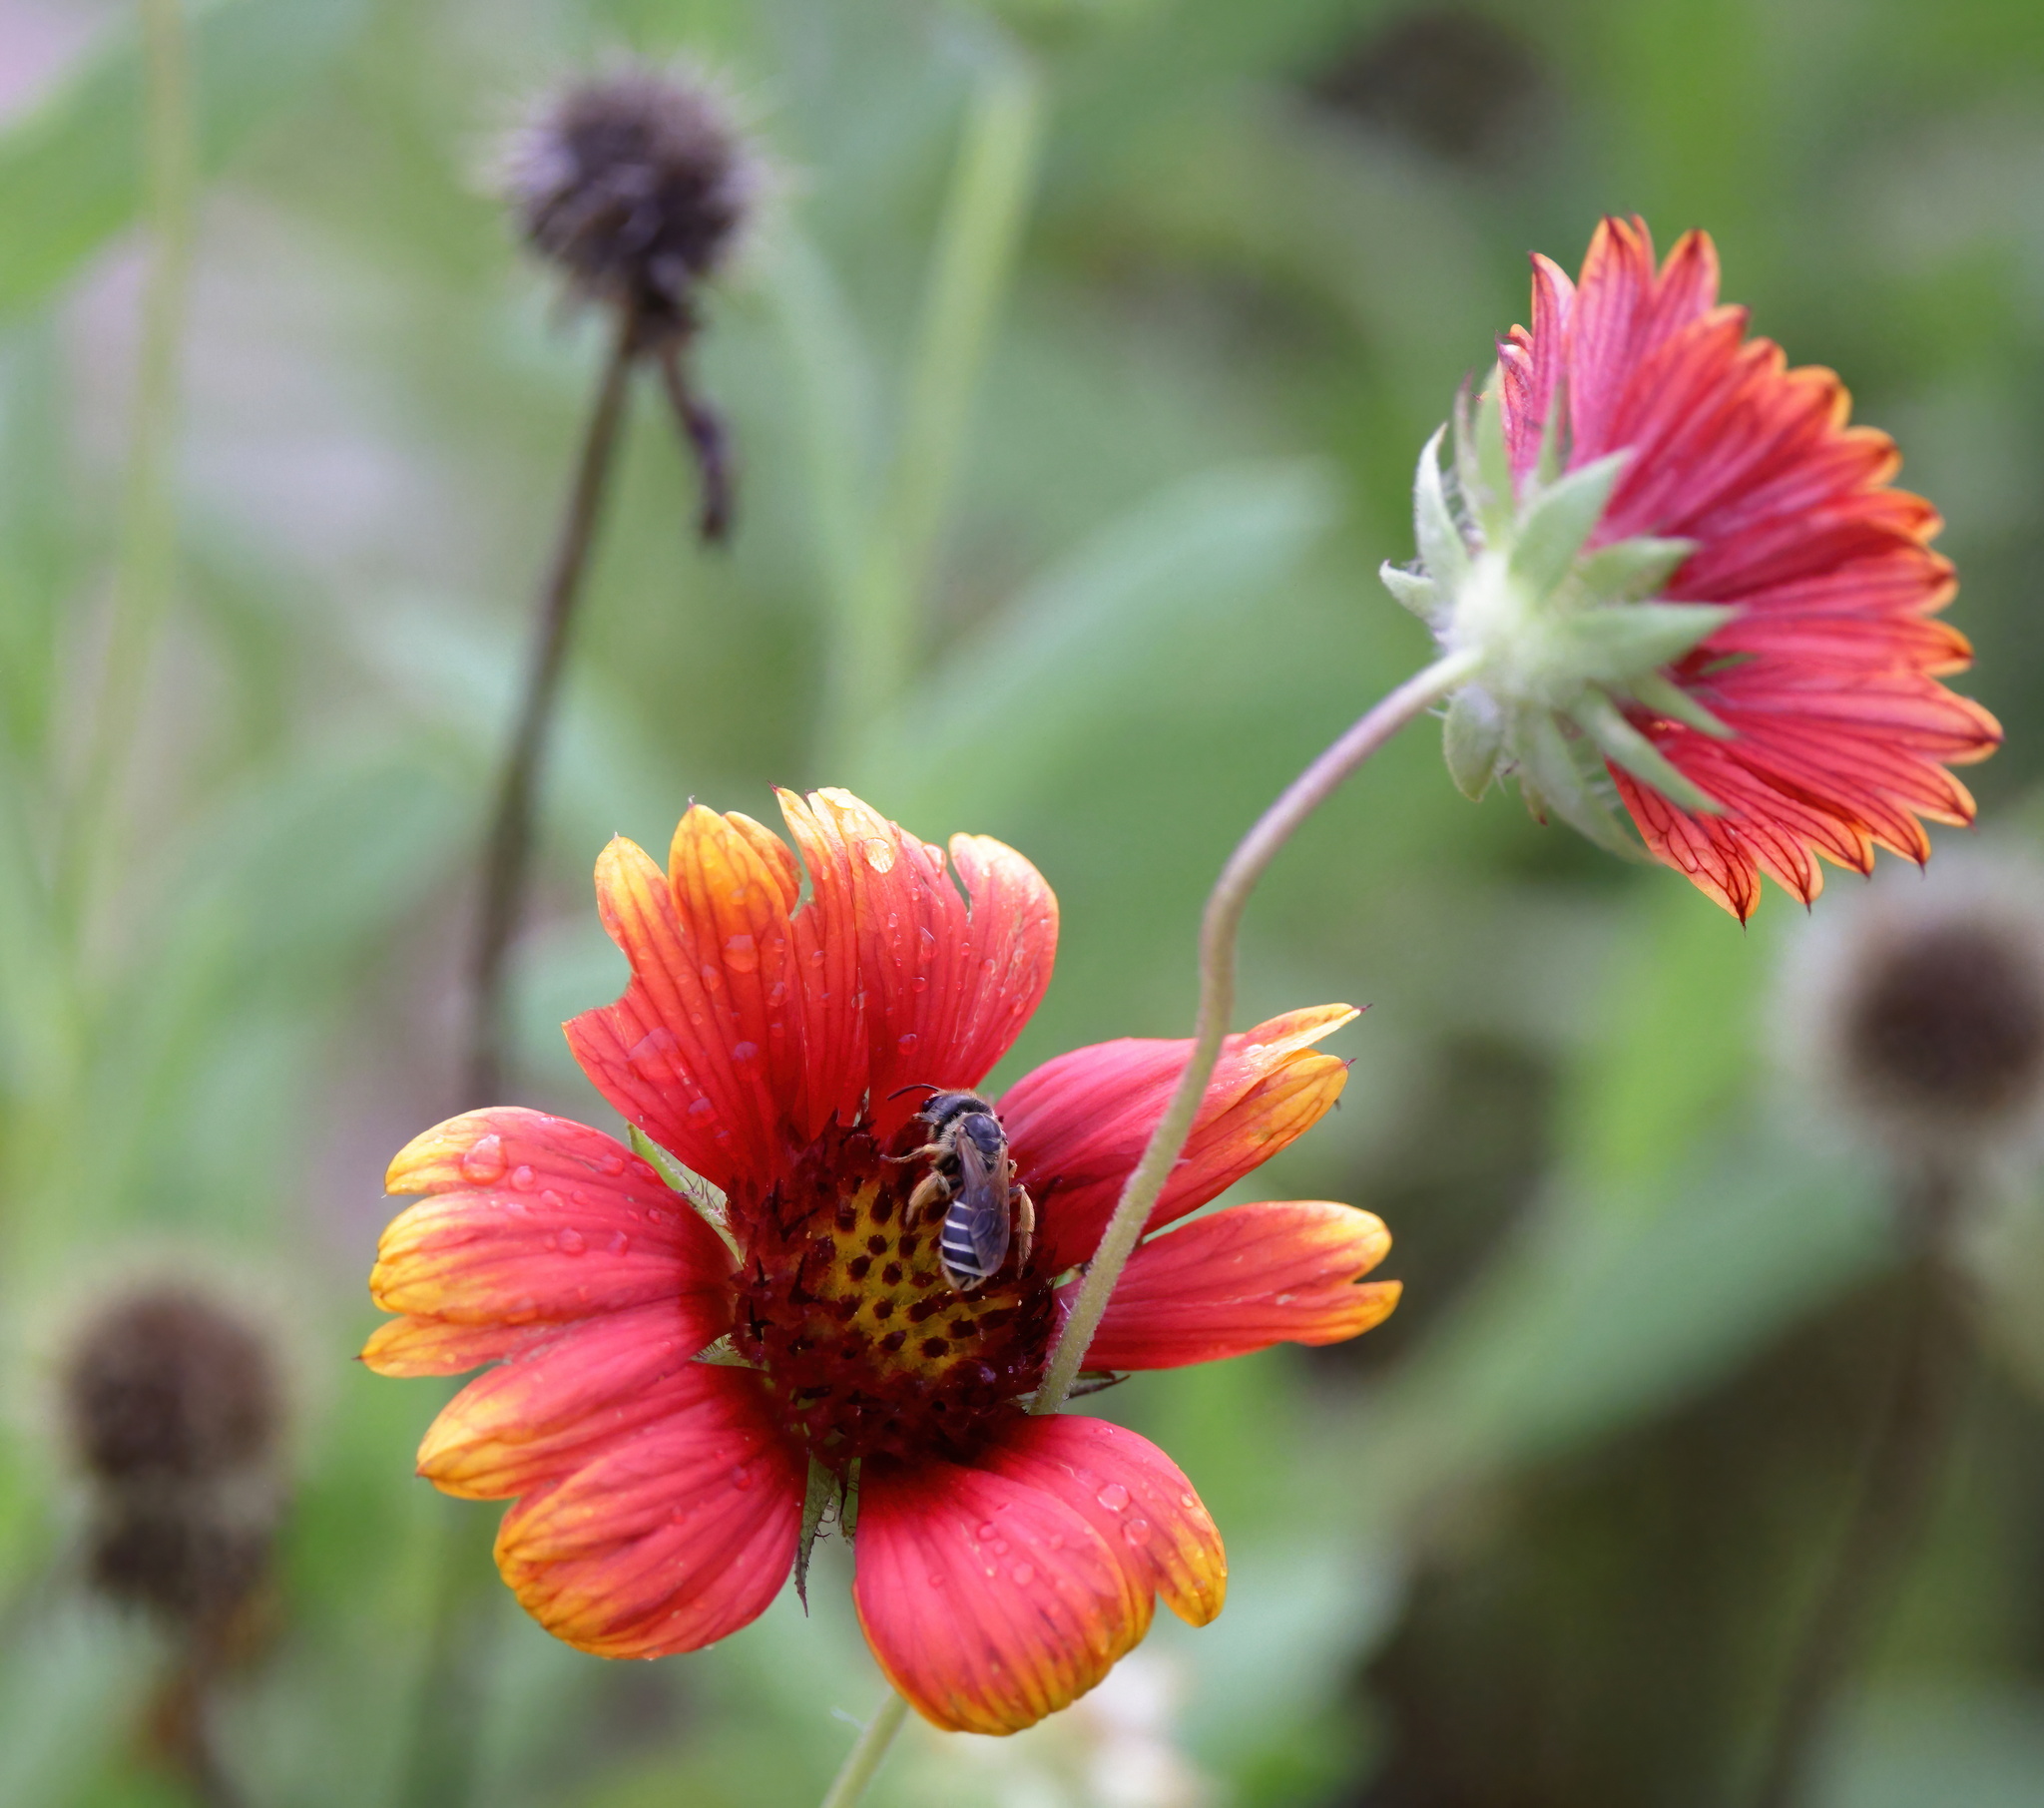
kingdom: Animalia
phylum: Arthropoda
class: Insecta
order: Hymenoptera
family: Halictidae
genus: Halictus
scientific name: Halictus poeyi
